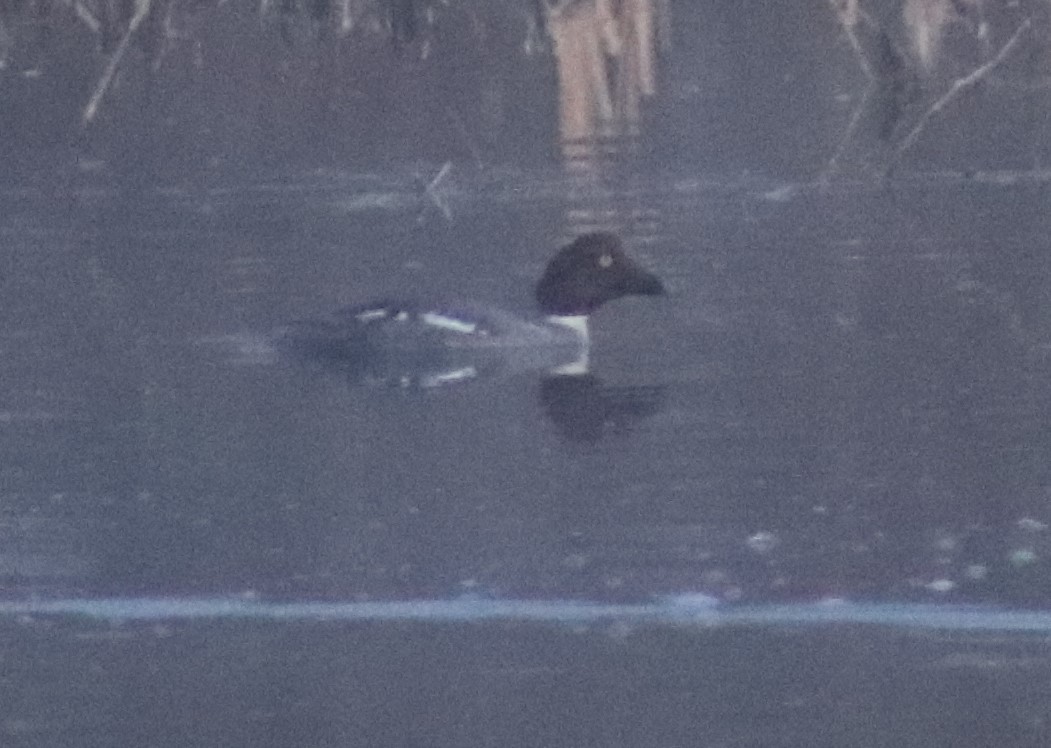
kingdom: Animalia
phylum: Chordata
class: Aves
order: Anseriformes
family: Anatidae
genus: Bucephala
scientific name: Bucephala clangula
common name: Common goldeneye
